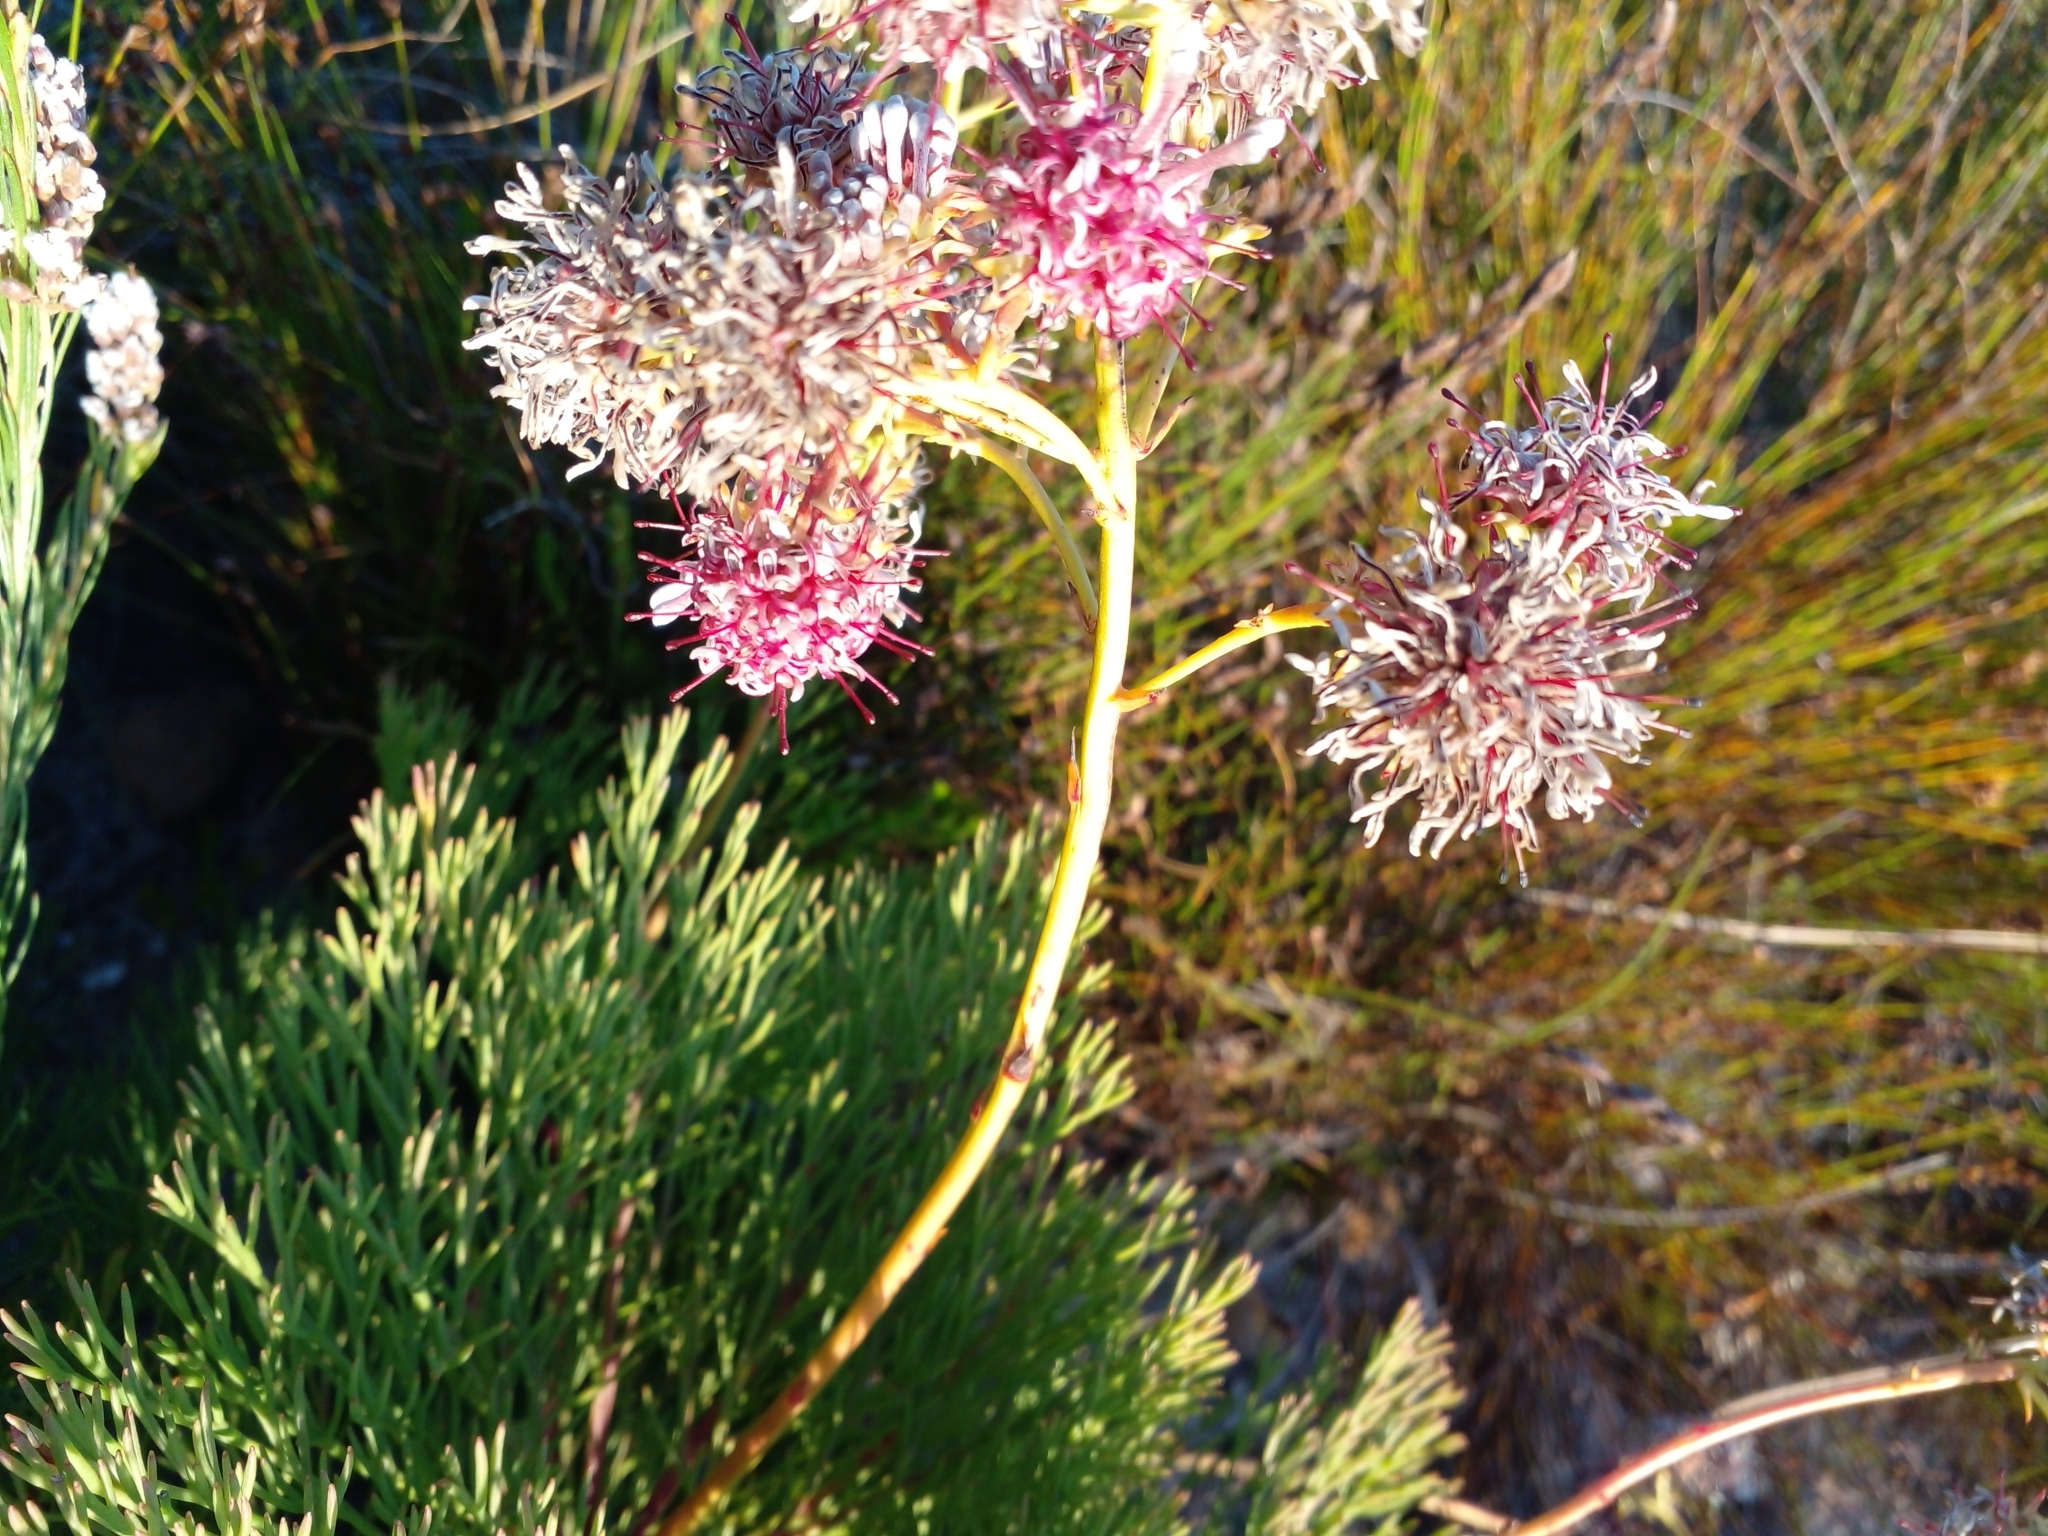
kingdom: Plantae
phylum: Tracheophyta
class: Magnoliopsida
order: Proteales
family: Proteaceae
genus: Serruria
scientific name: Serruria elongata
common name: Long-stalk spiderhead
